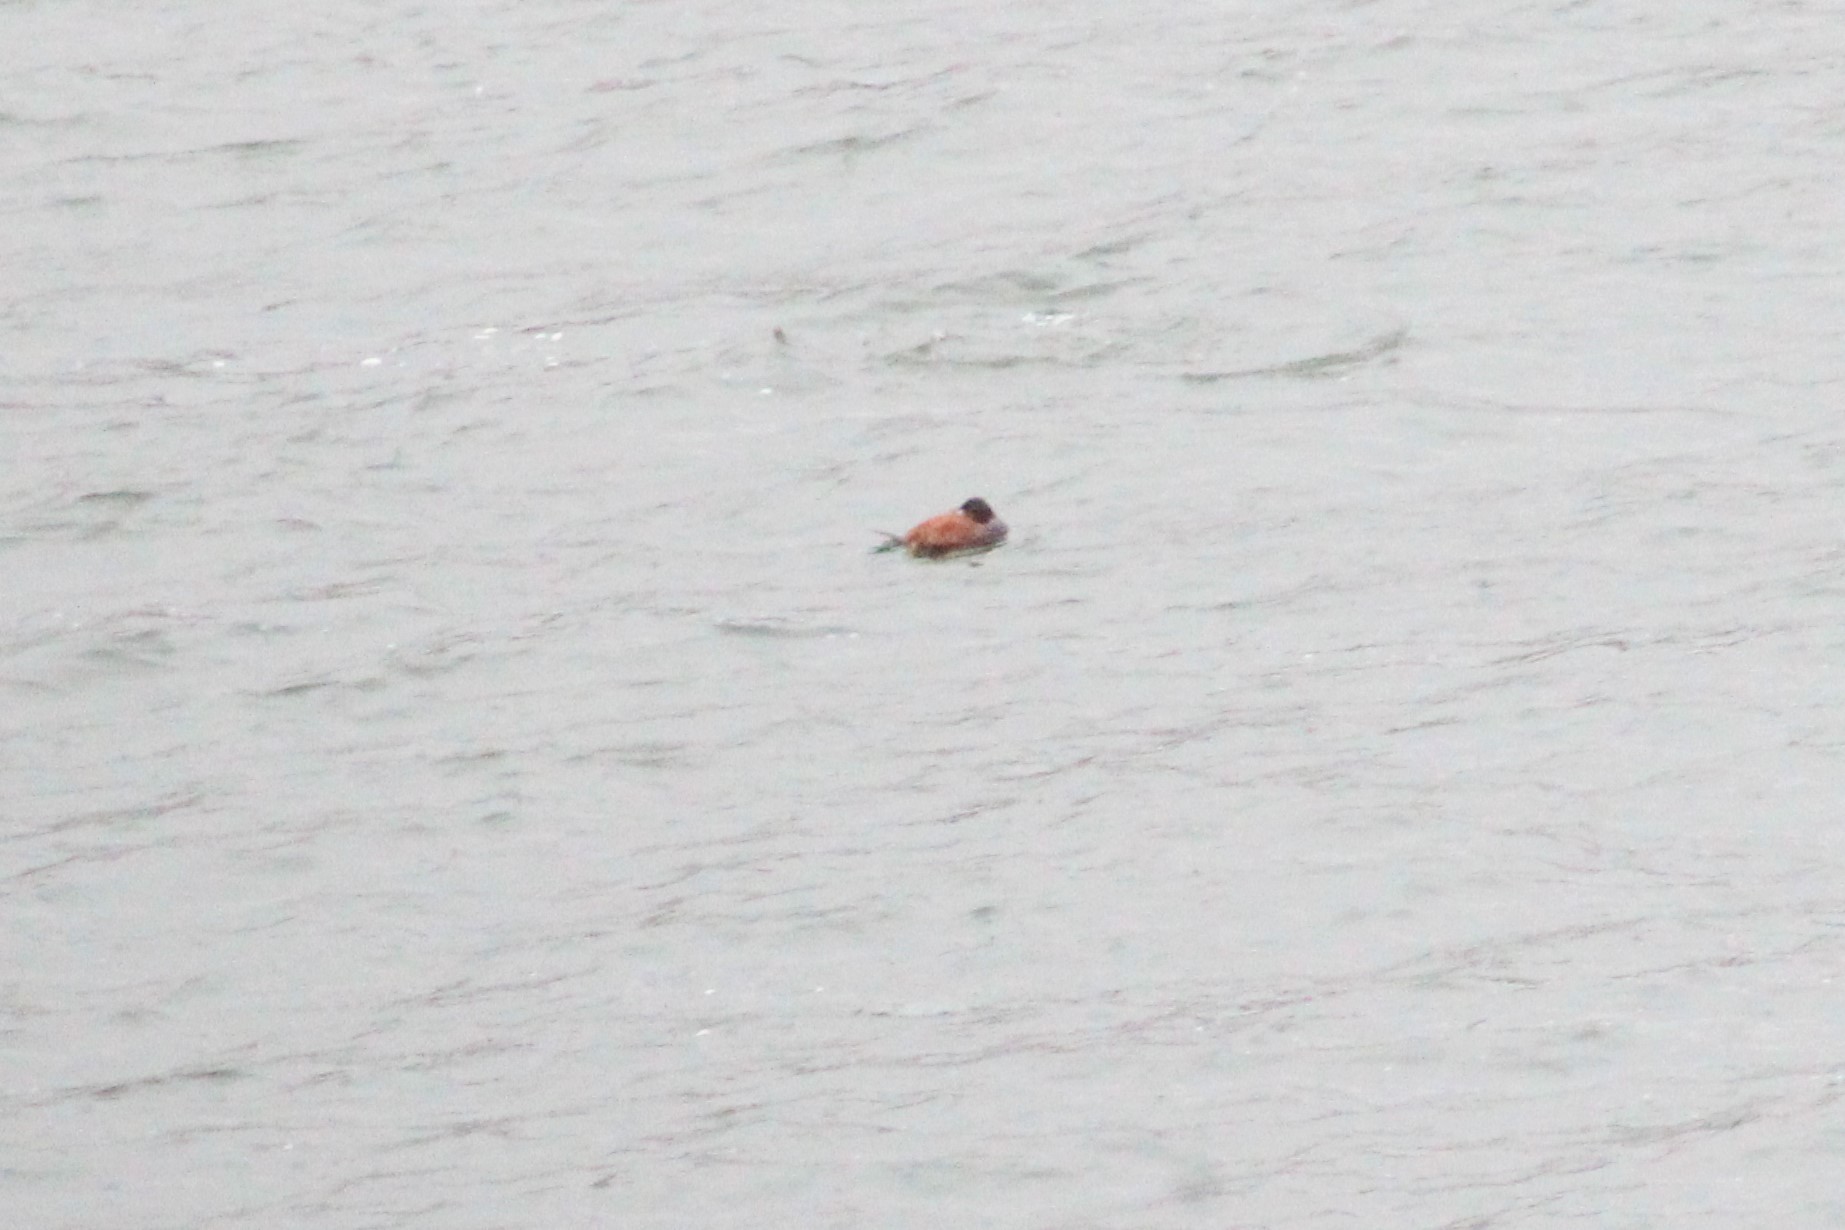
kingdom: Animalia
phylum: Chordata
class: Aves
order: Anseriformes
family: Anatidae
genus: Oxyura
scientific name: Oxyura ferruginea
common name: Andean duck
